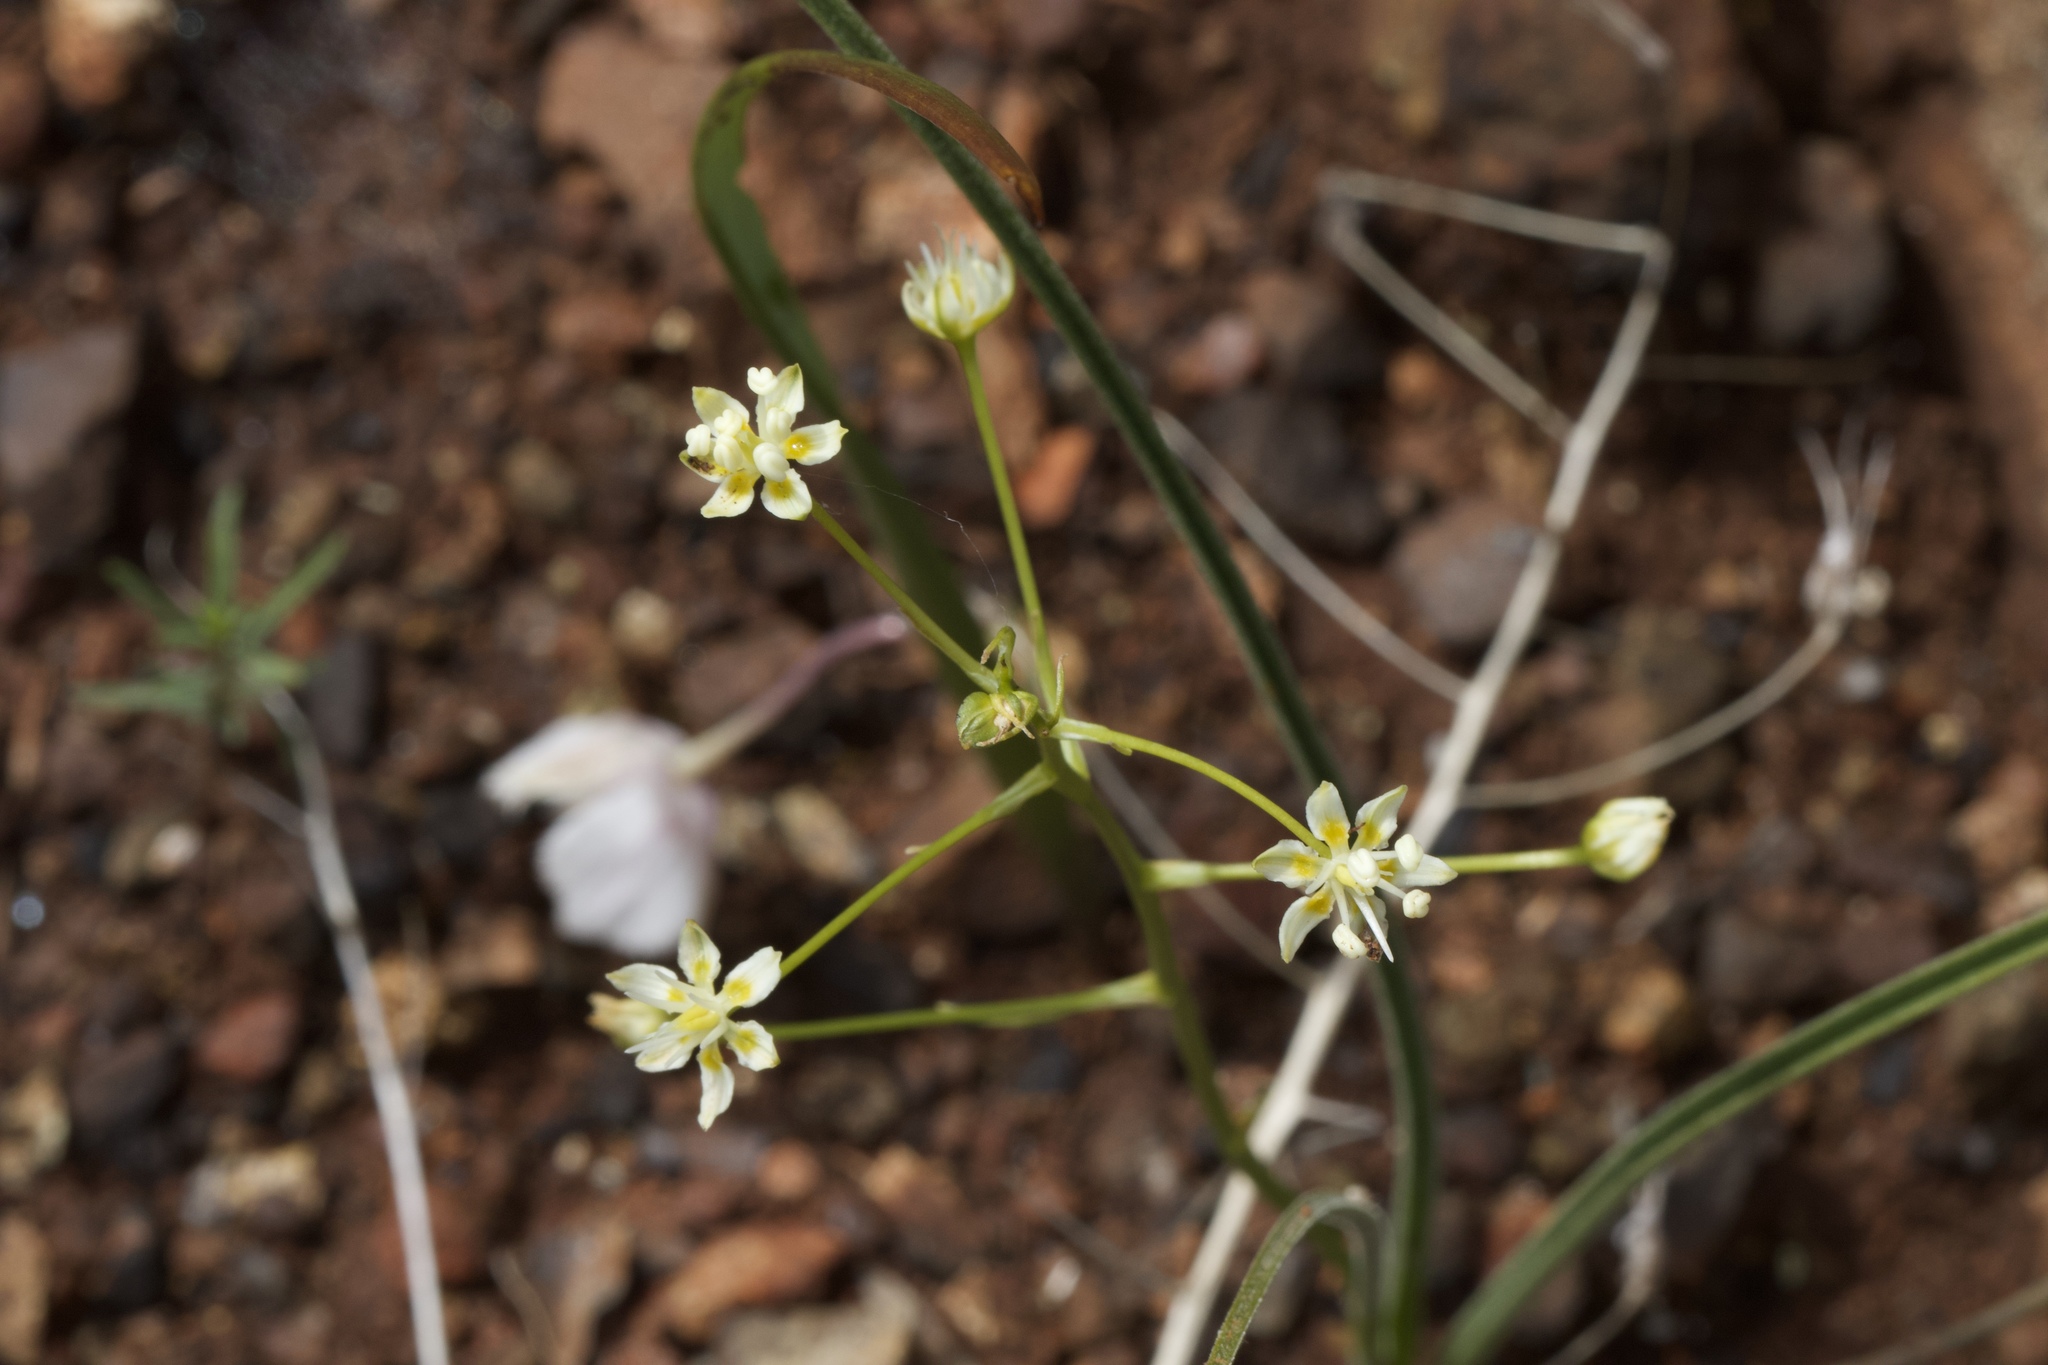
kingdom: Plantae
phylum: Tracheophyta
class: Liliopsida
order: Liliales
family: Melanthiaceae
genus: Toxicoscordion
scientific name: Toxicoscordion fontanum
